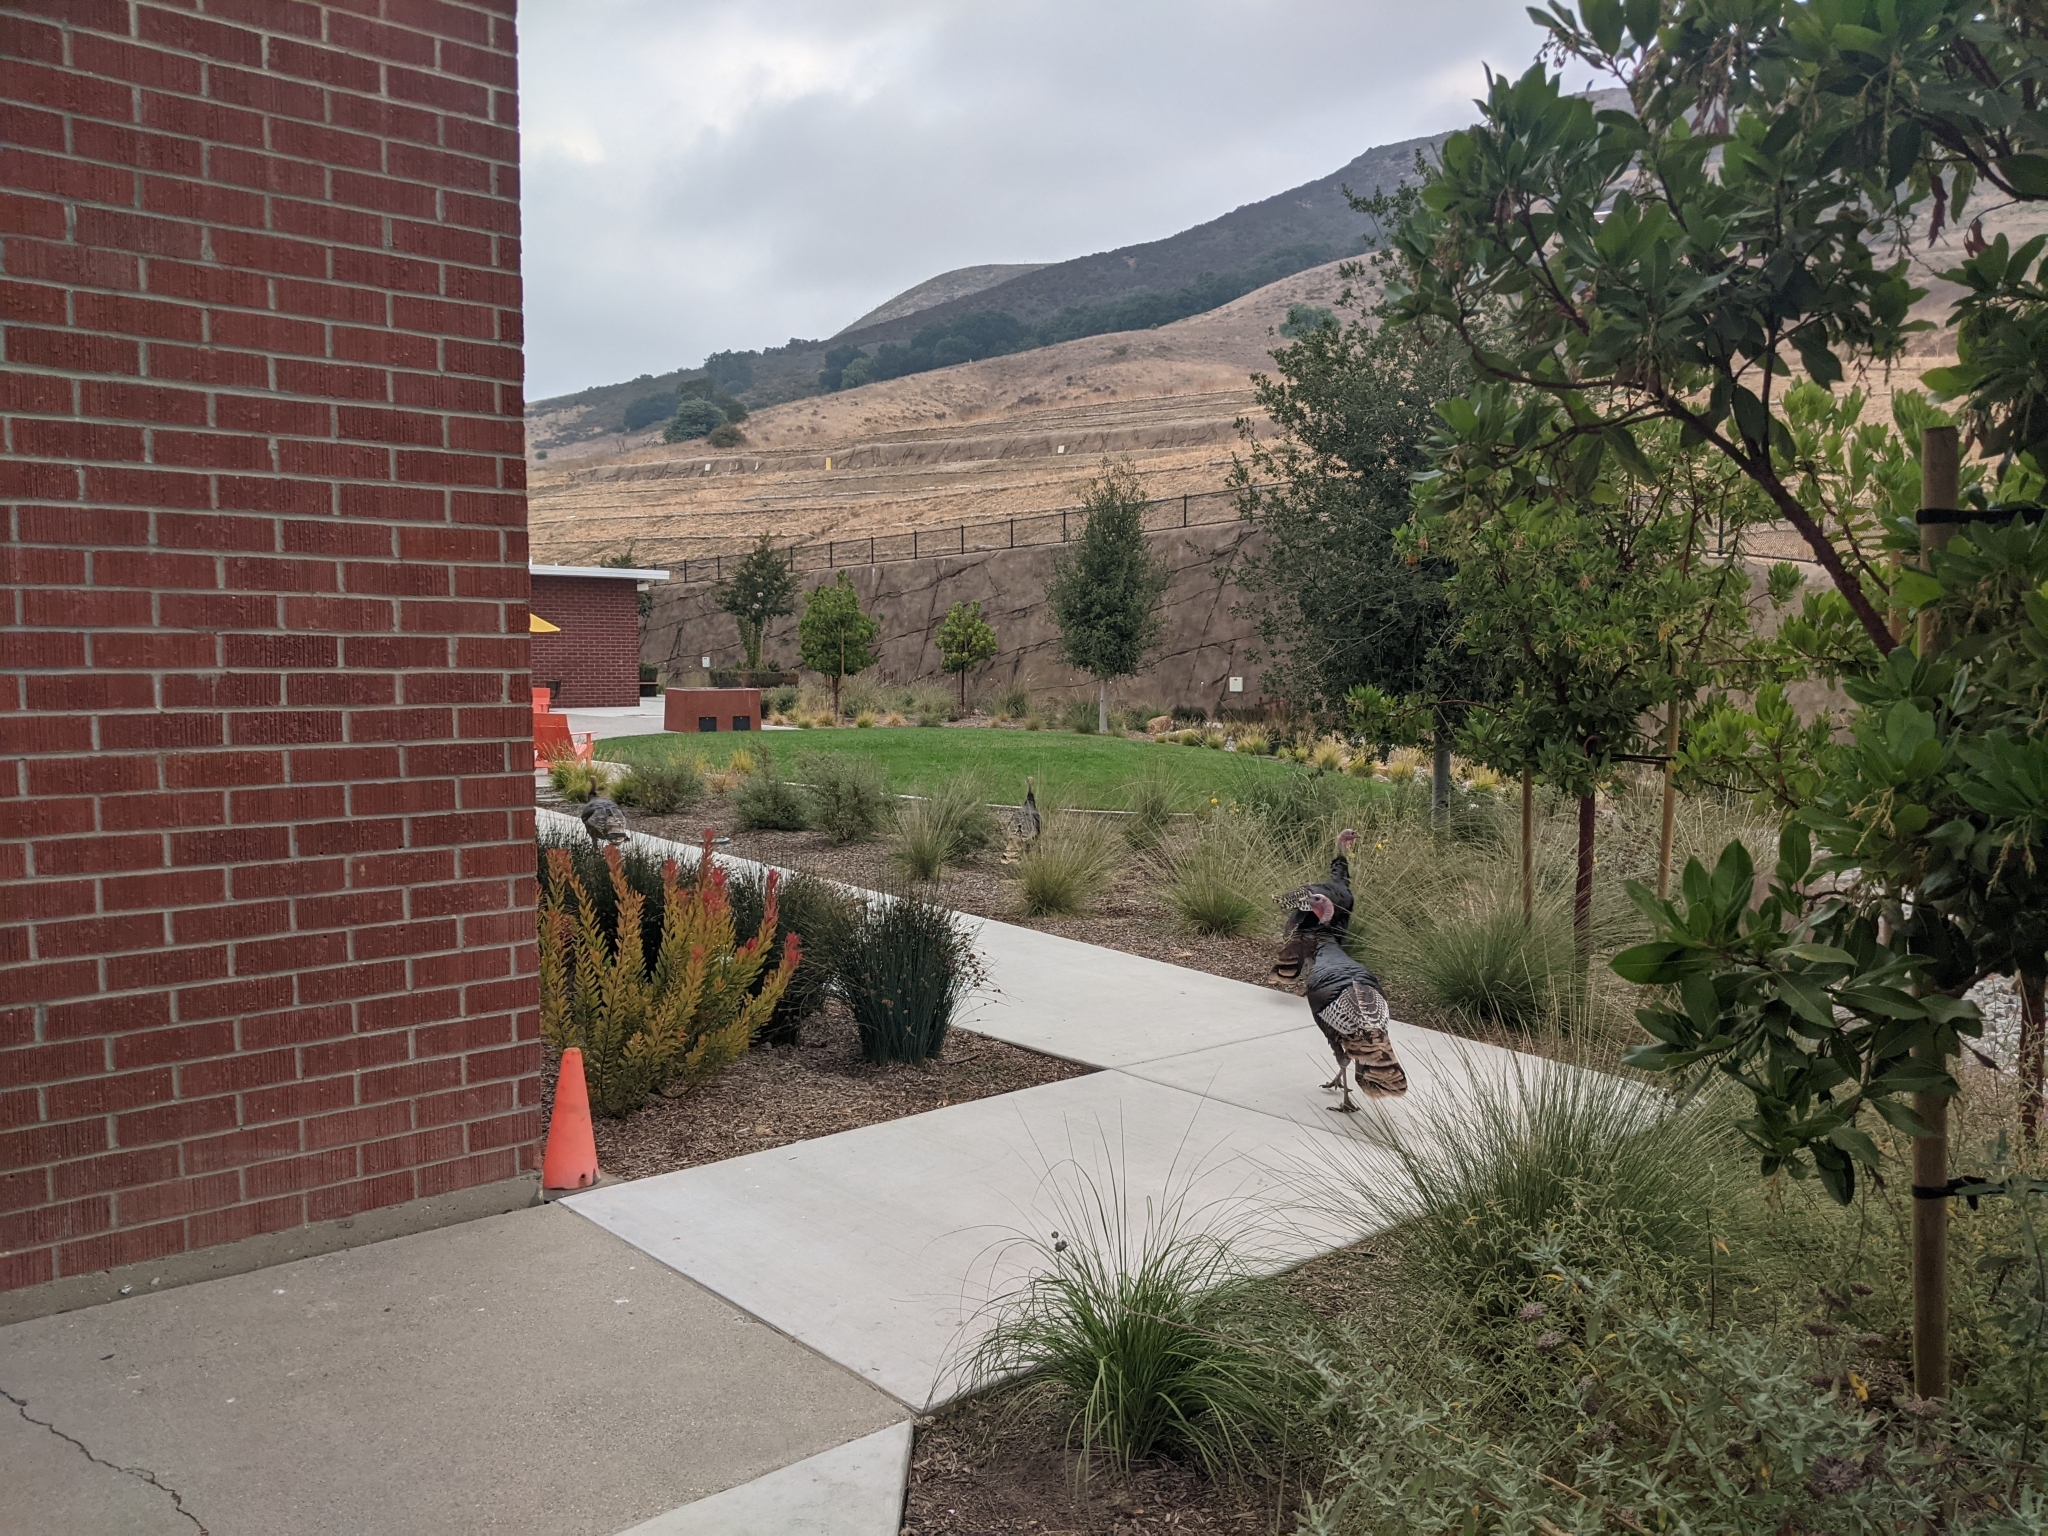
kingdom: Animalia
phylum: Chordata
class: Aves
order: Galliformes
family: Phasianidae
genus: Meleagris
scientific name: Meleagris gallopavo
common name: Wild turkey
